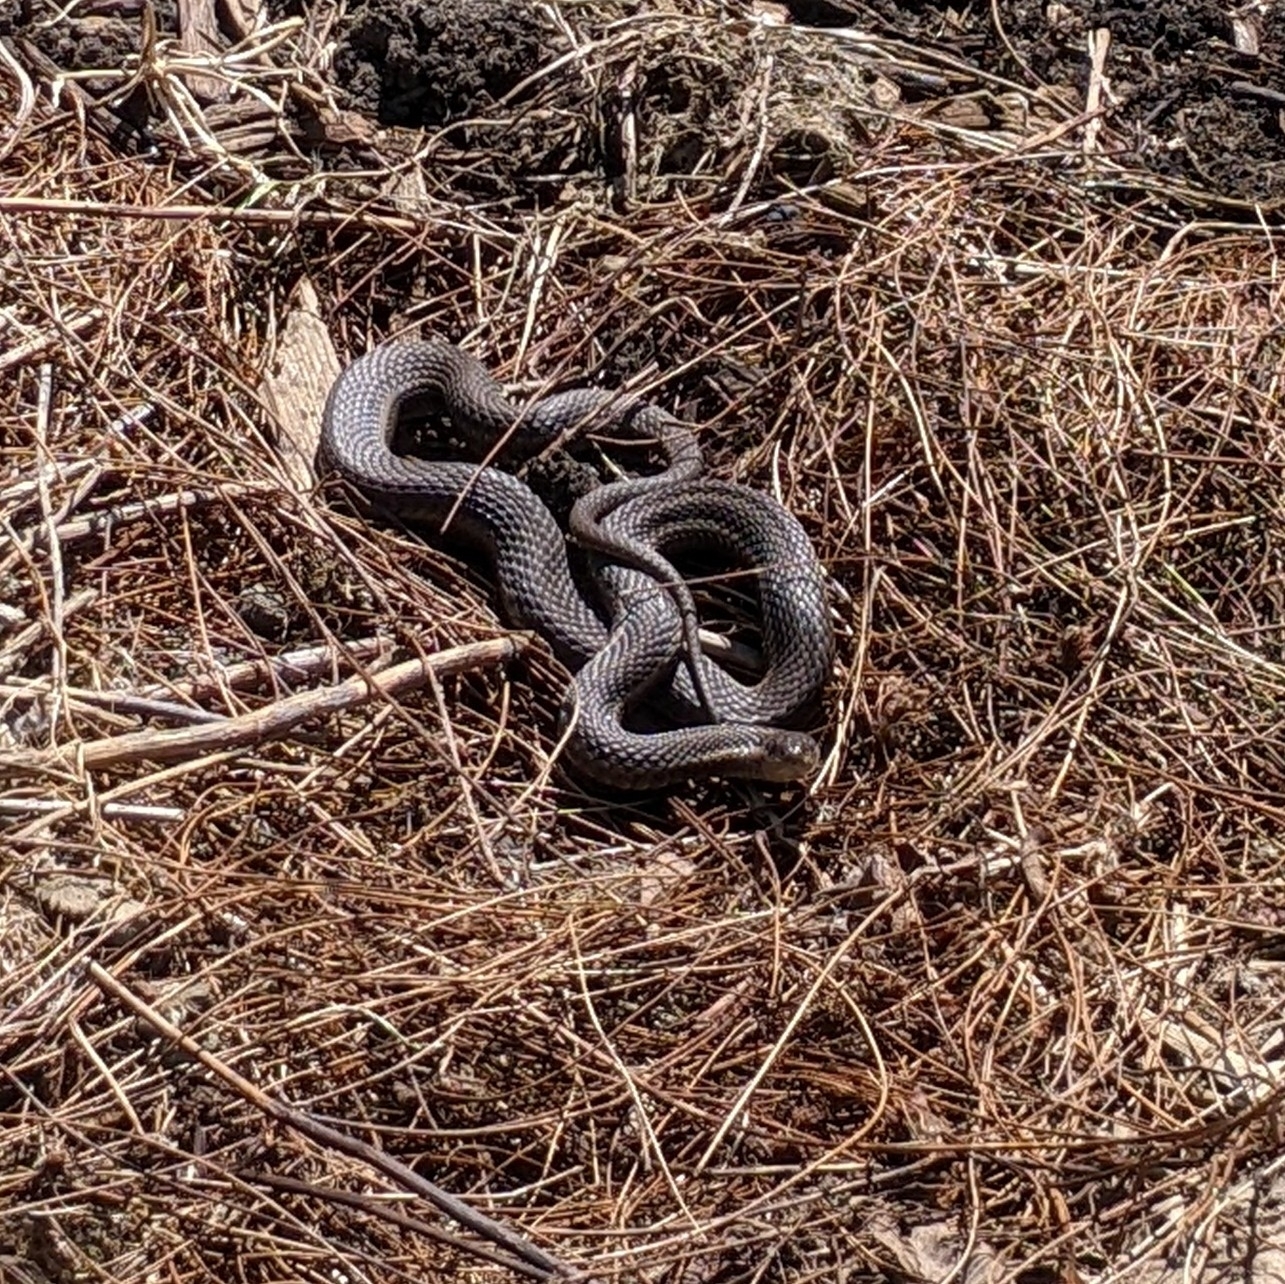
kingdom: Animalia
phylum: Chordata
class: Squamata
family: Colubridae
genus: Thamnophis
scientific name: Thamnophis ordinoides
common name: Northwestern garter snake
